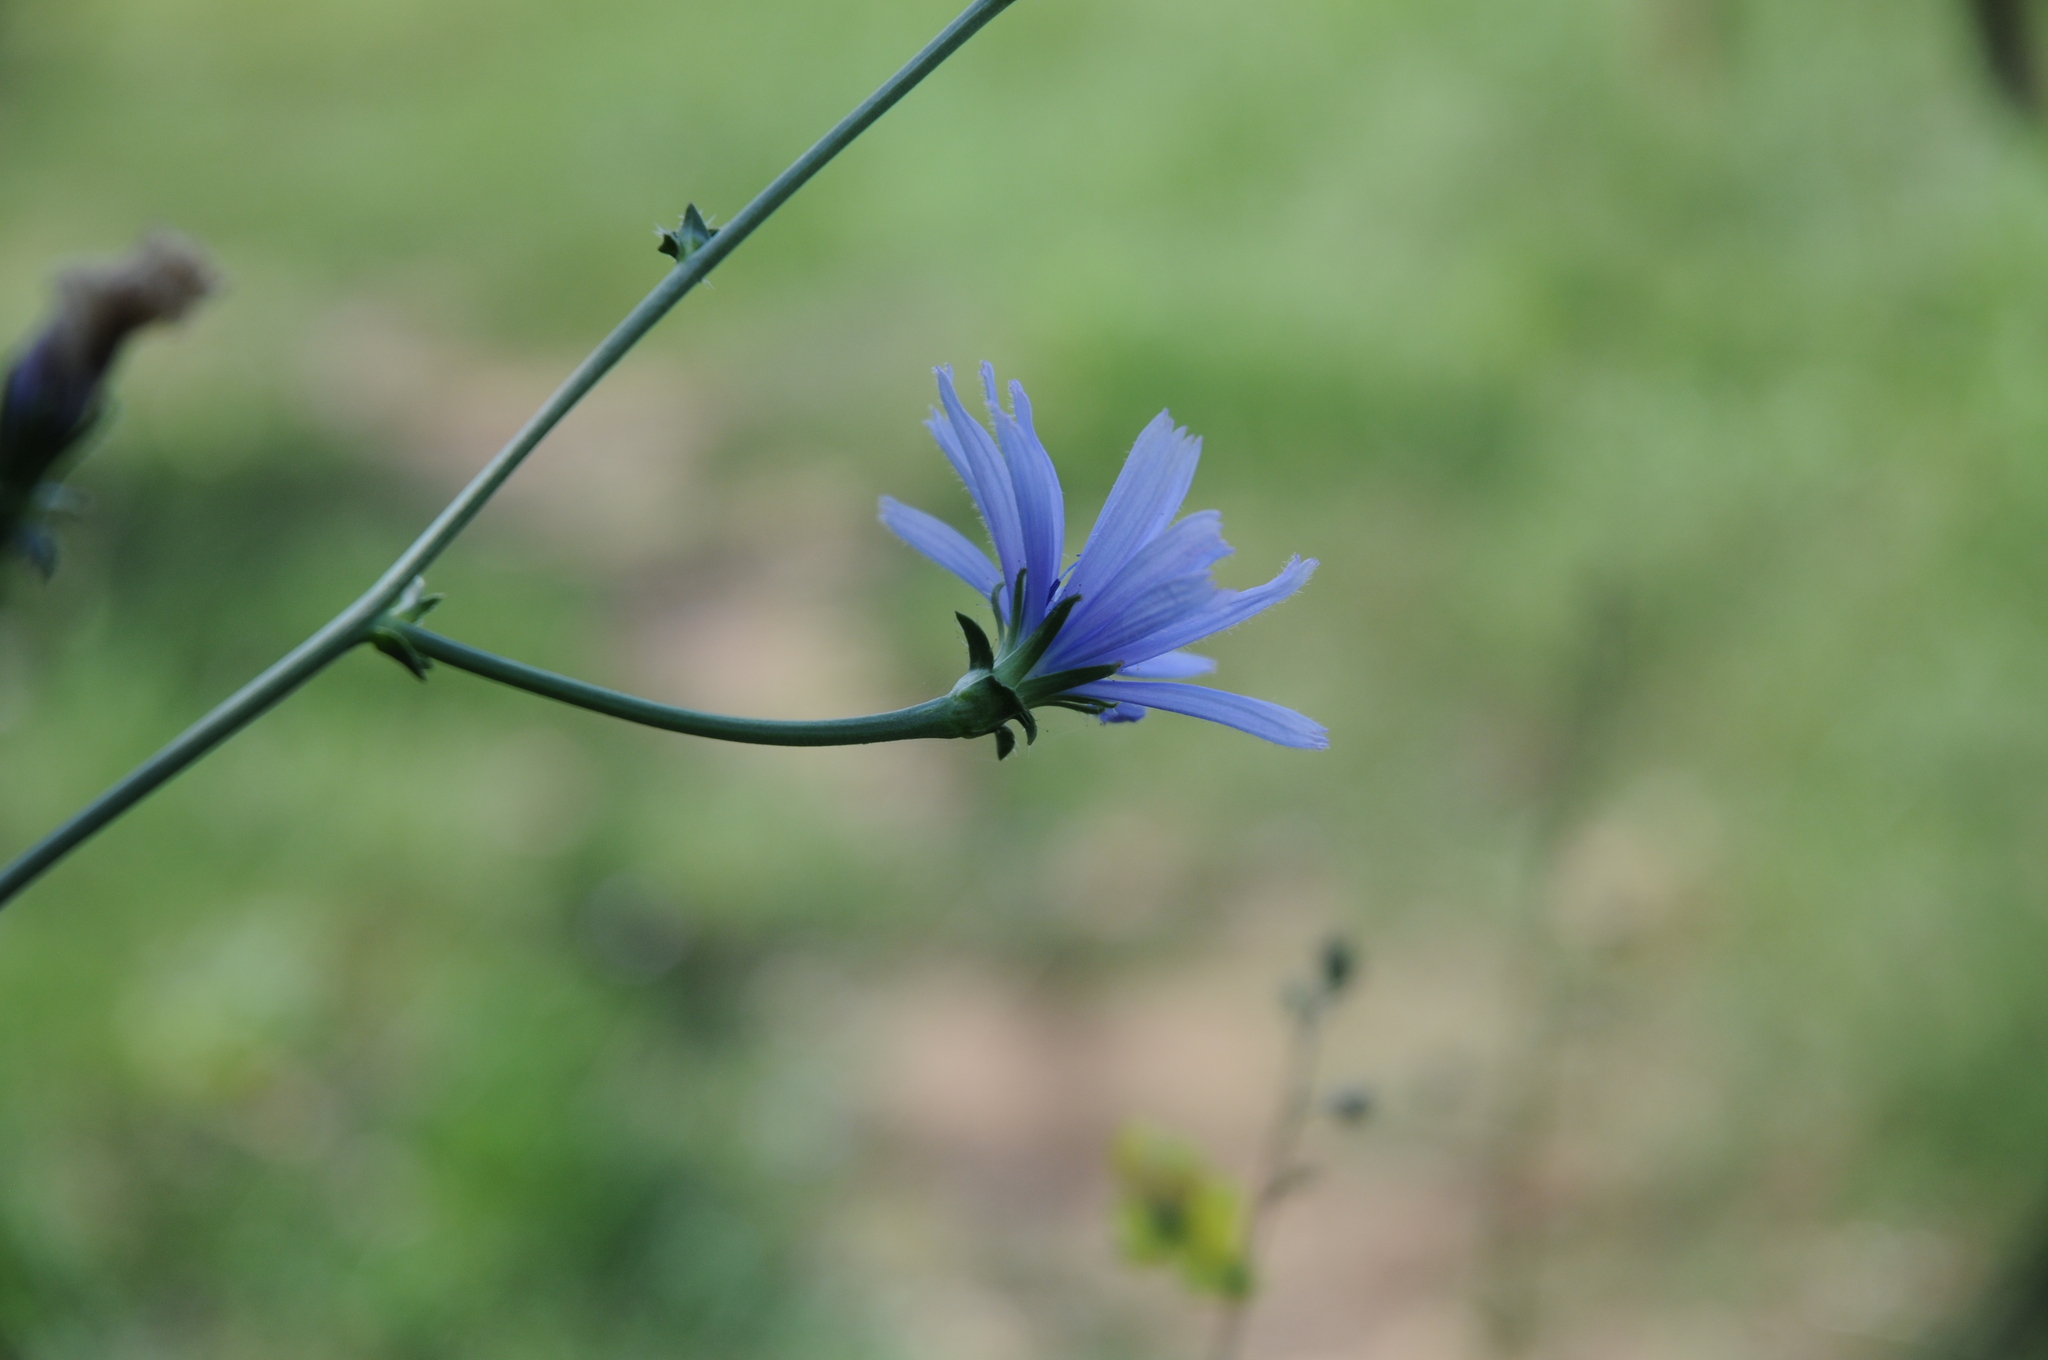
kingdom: Plantae
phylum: Tracheophyta
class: Magnoliopsida
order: Asterales
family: Asteraceae
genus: Cichorium
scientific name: Cichorium intybus
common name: Chicory
